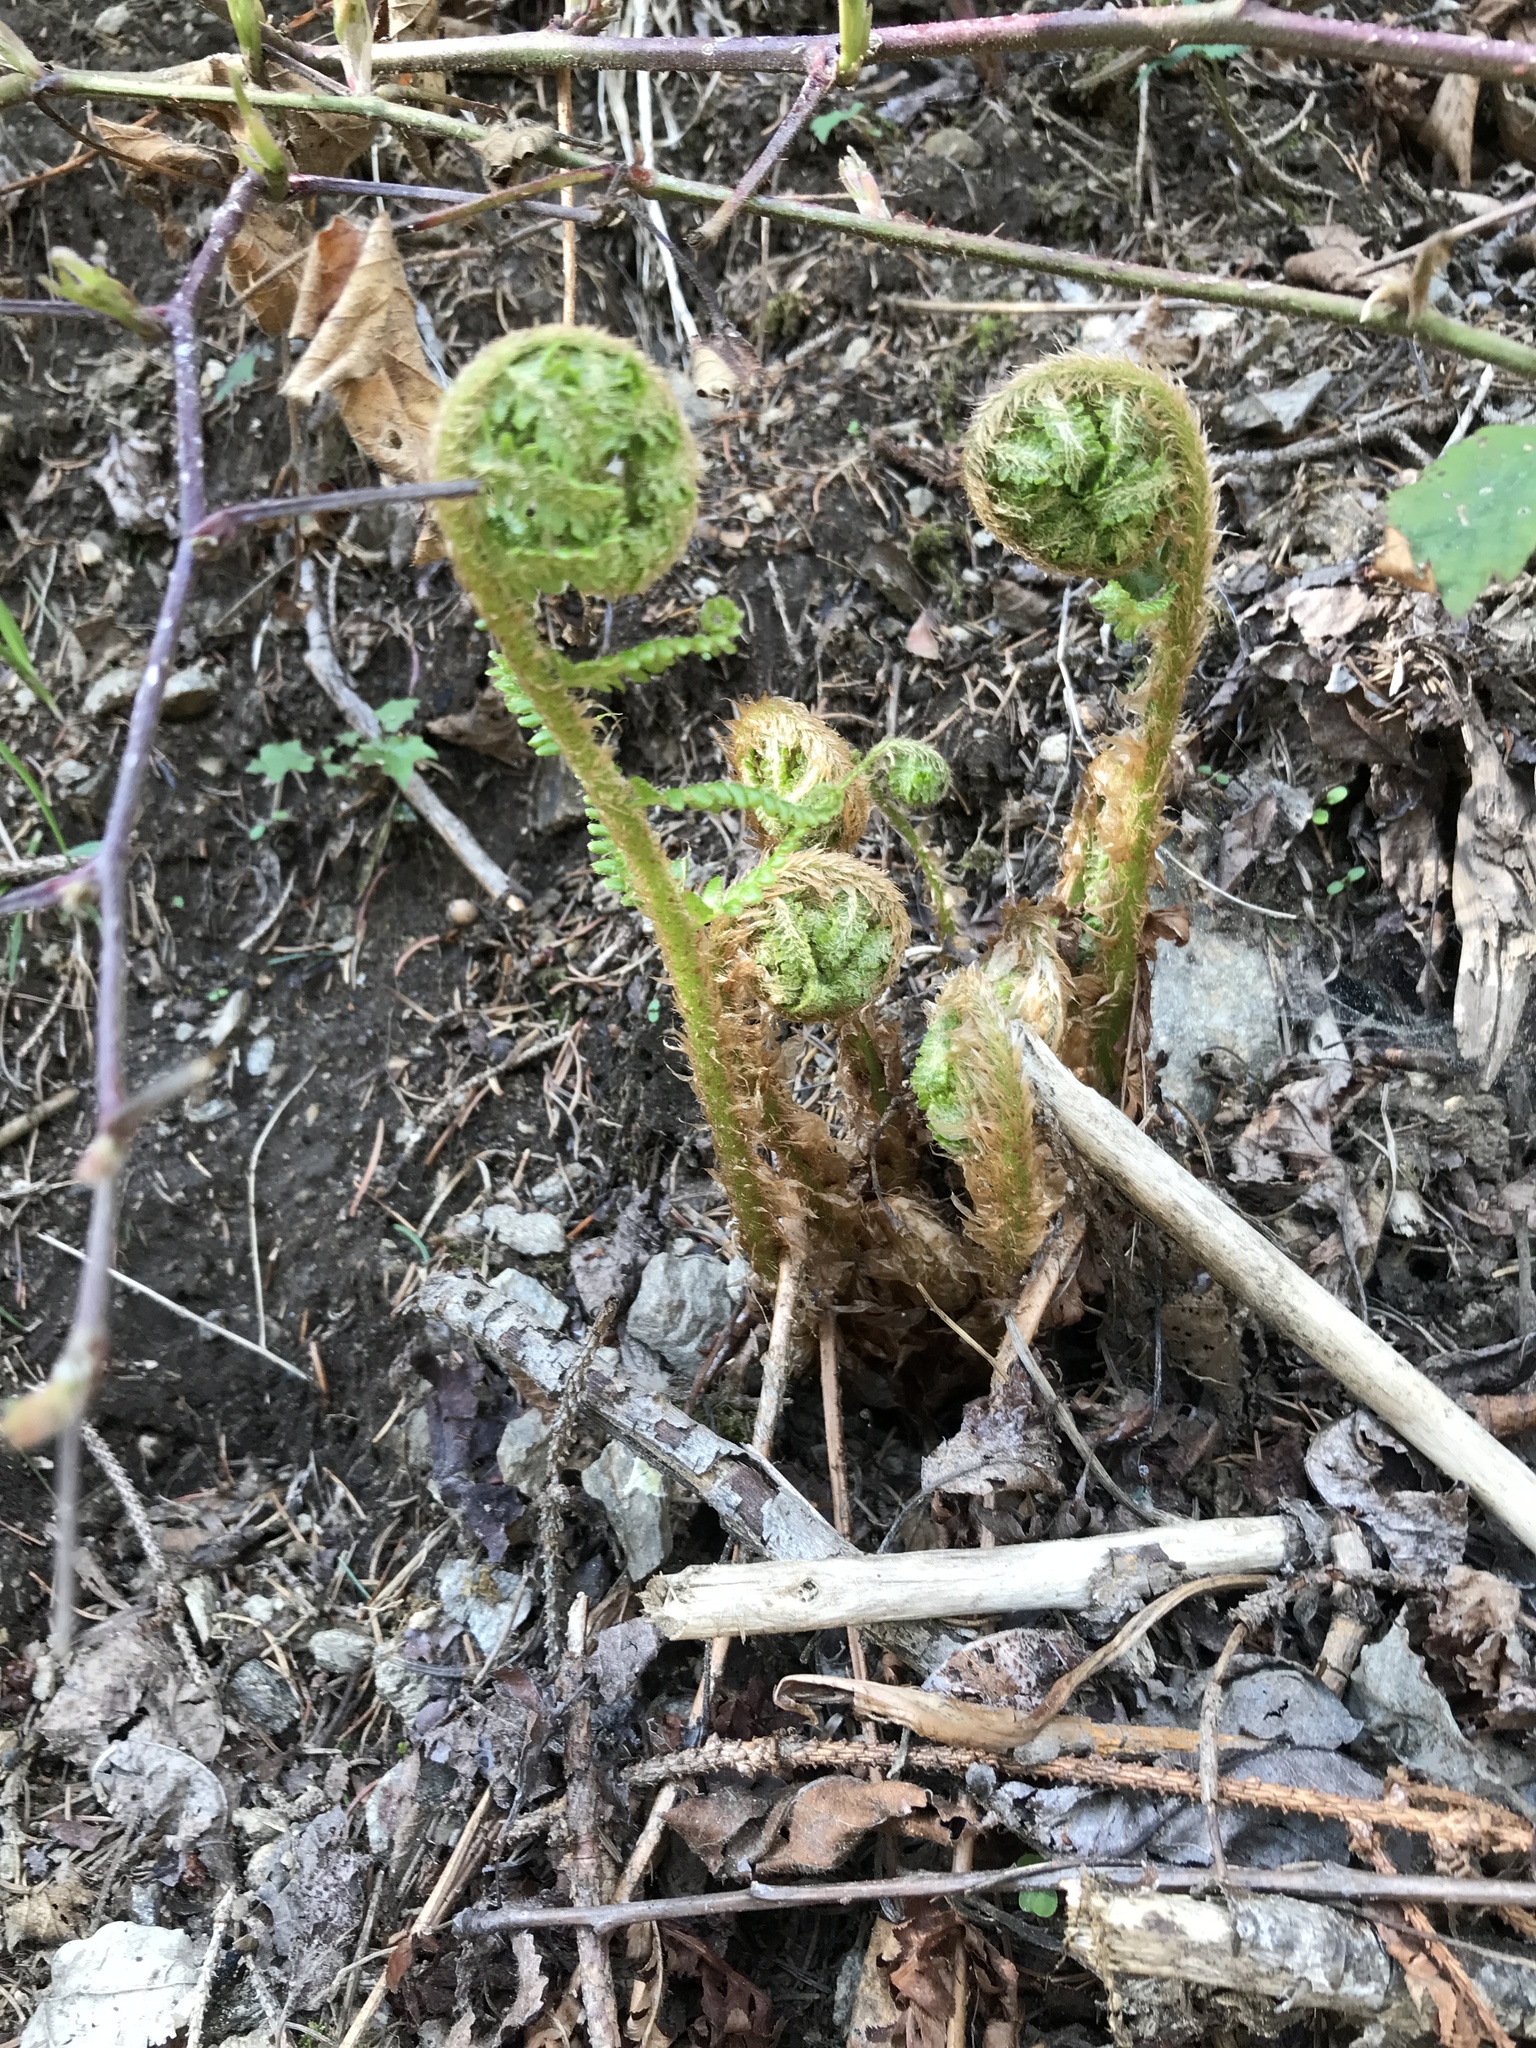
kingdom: Plantae
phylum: Tracheophyta
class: Polypodiopsida
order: Polypodiales
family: Dryopteridaceae
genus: Dryopteris
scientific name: Dryopteris filix-mas
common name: Male fern
